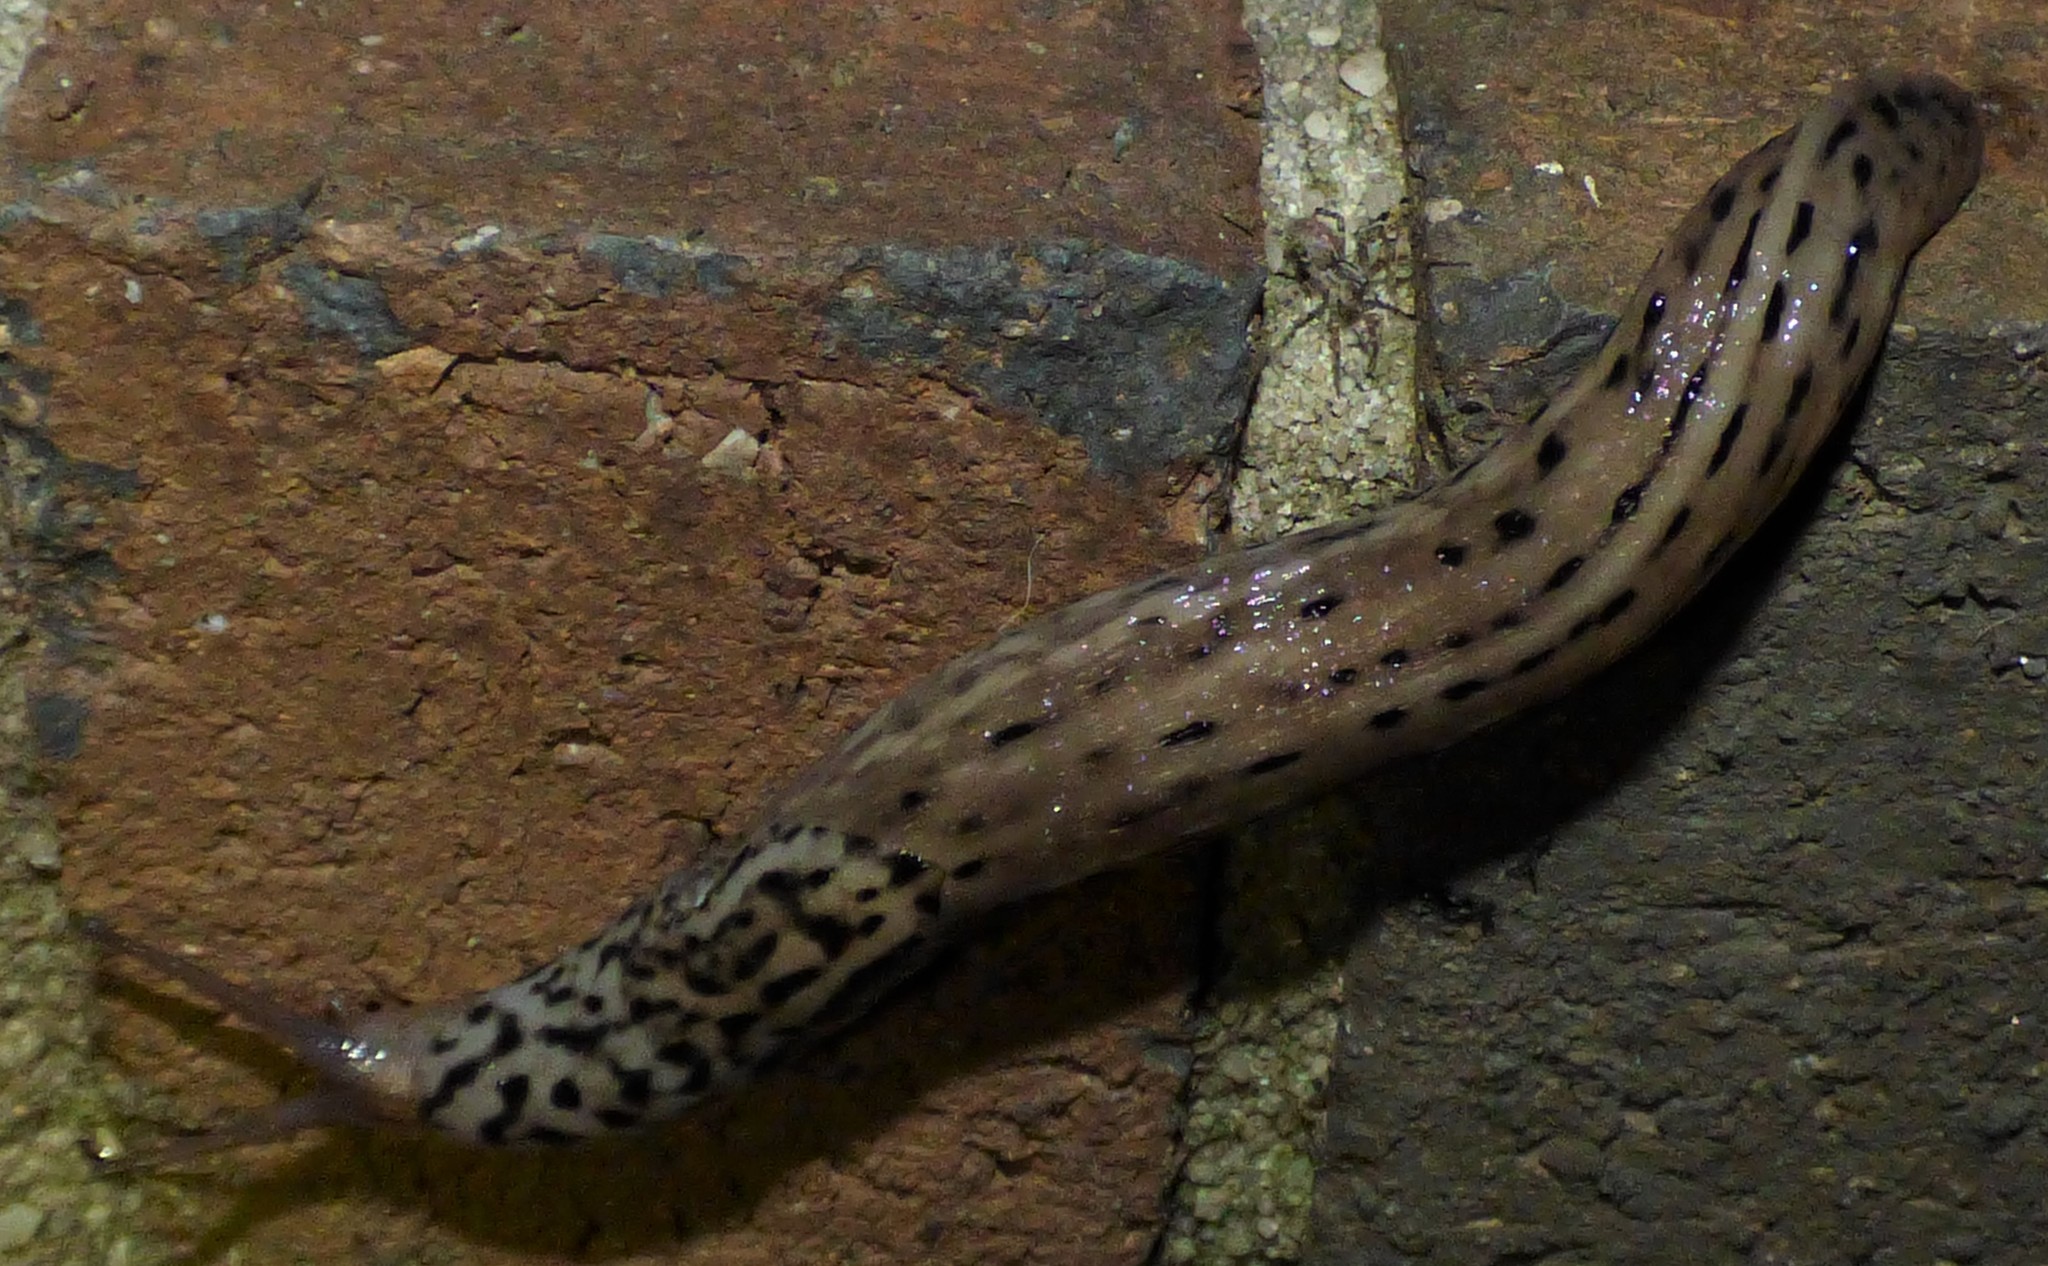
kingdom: Animalia
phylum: Mollusca
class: Gastropoda
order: Stylommatophora
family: Limacidae
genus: Limax
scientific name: Limax maximus
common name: Great grey slug
